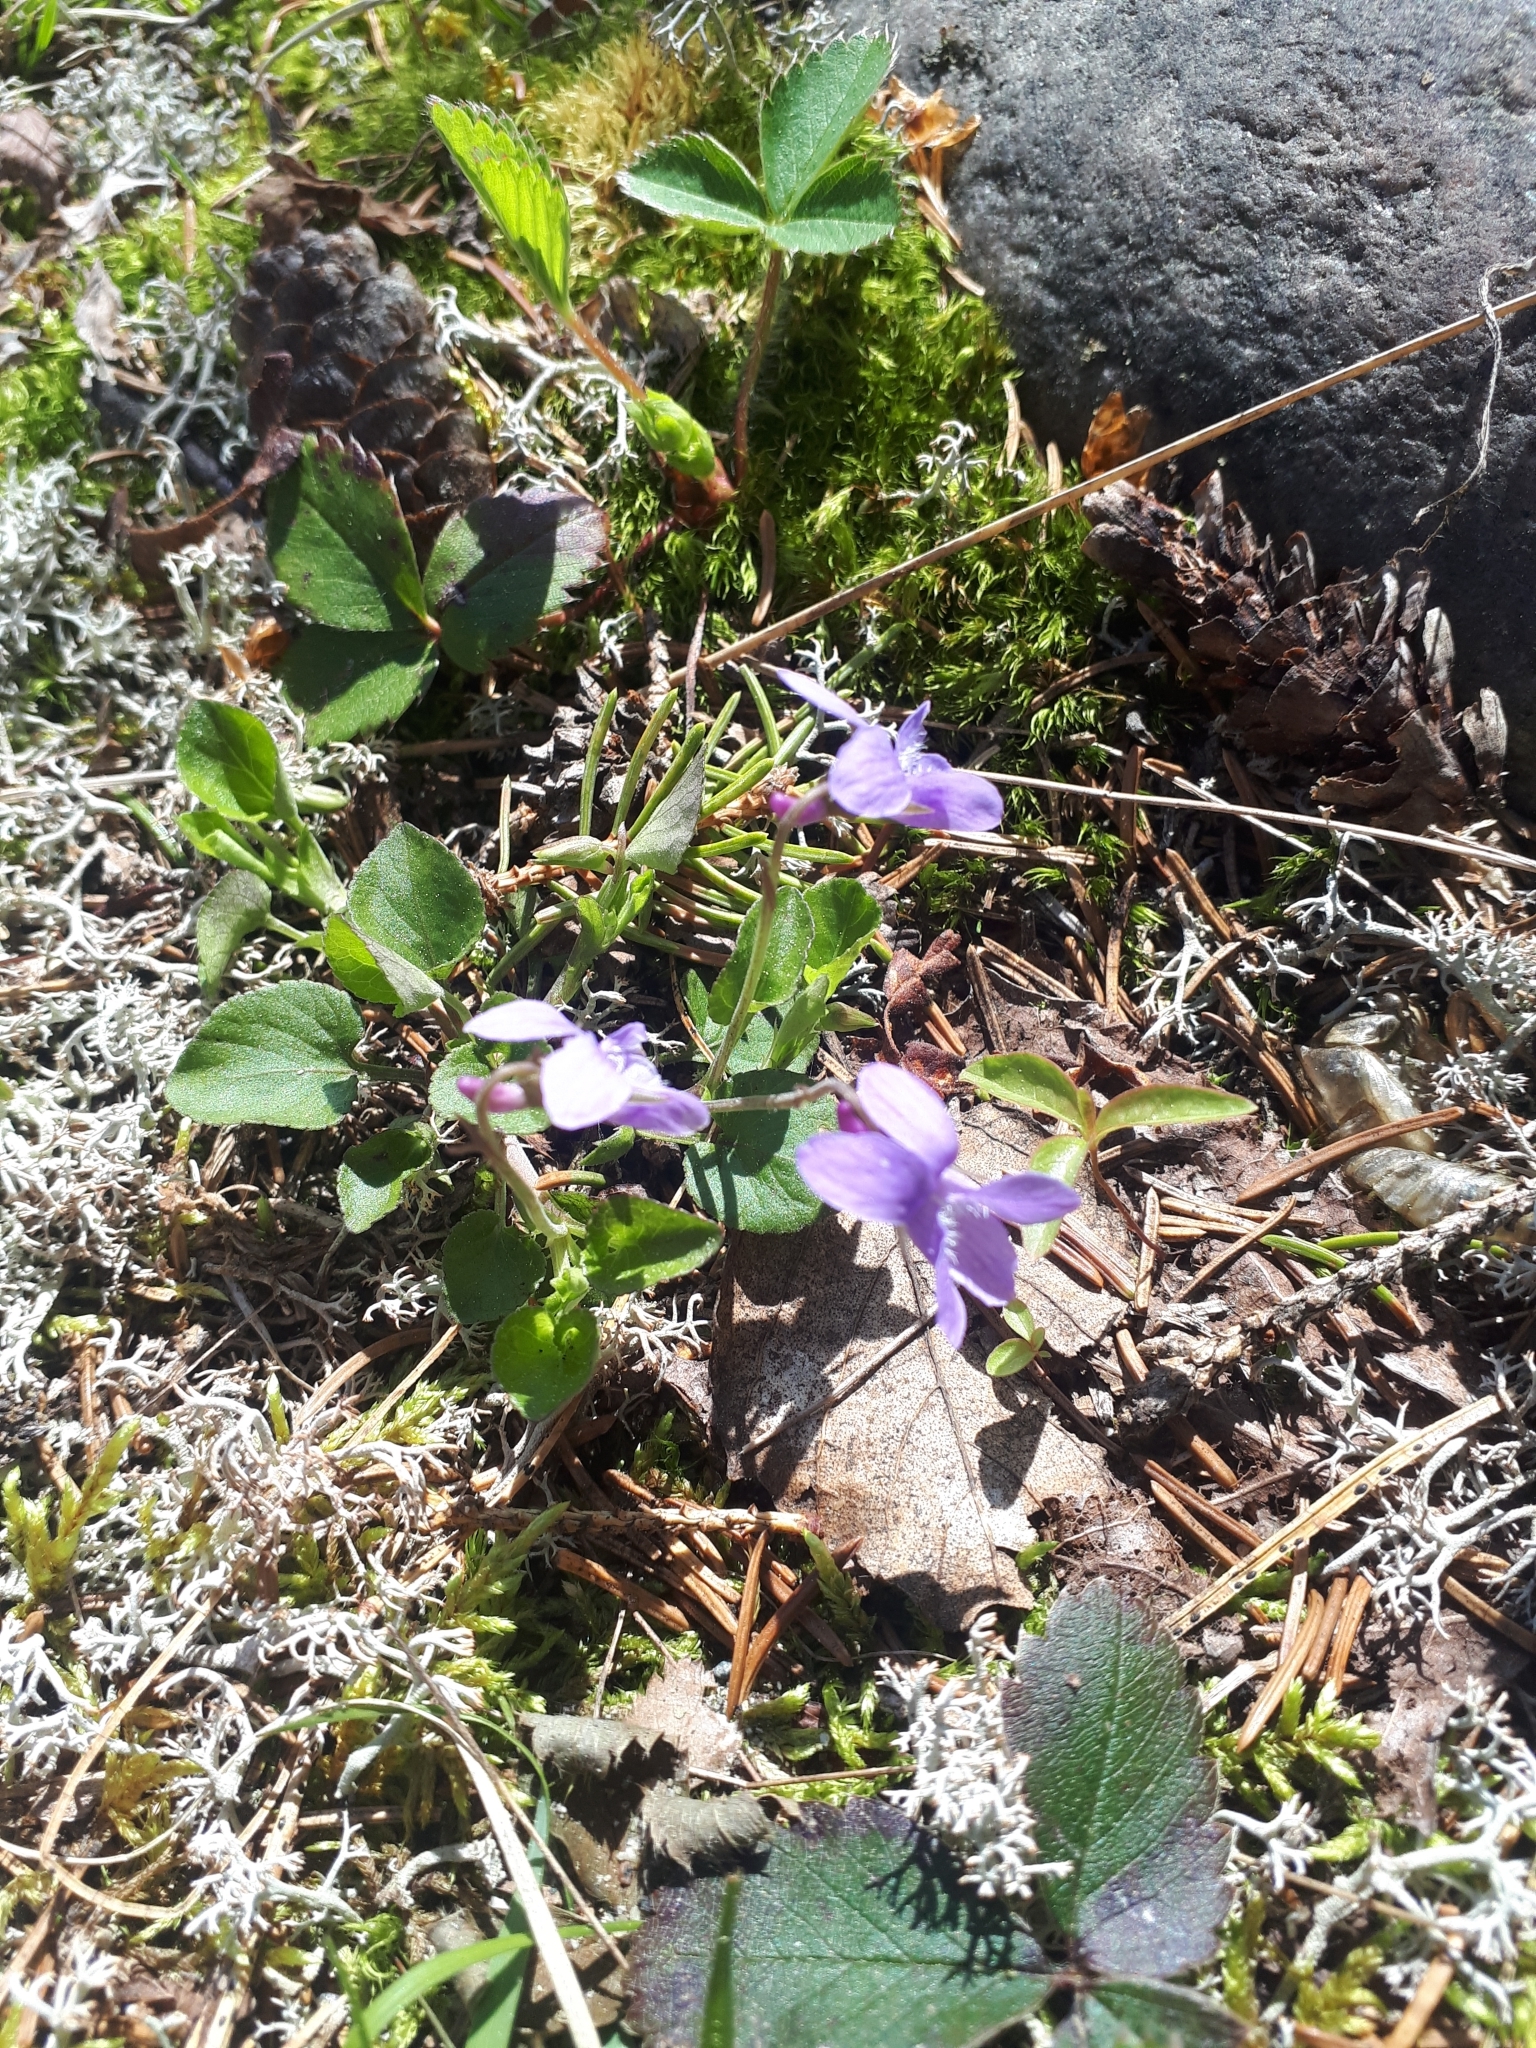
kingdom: Plantae
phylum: Tracheophyta
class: Magnoliopsida
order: Malpighiales
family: Violaceae
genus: Viola
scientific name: Viola adunca
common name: Sand violet
